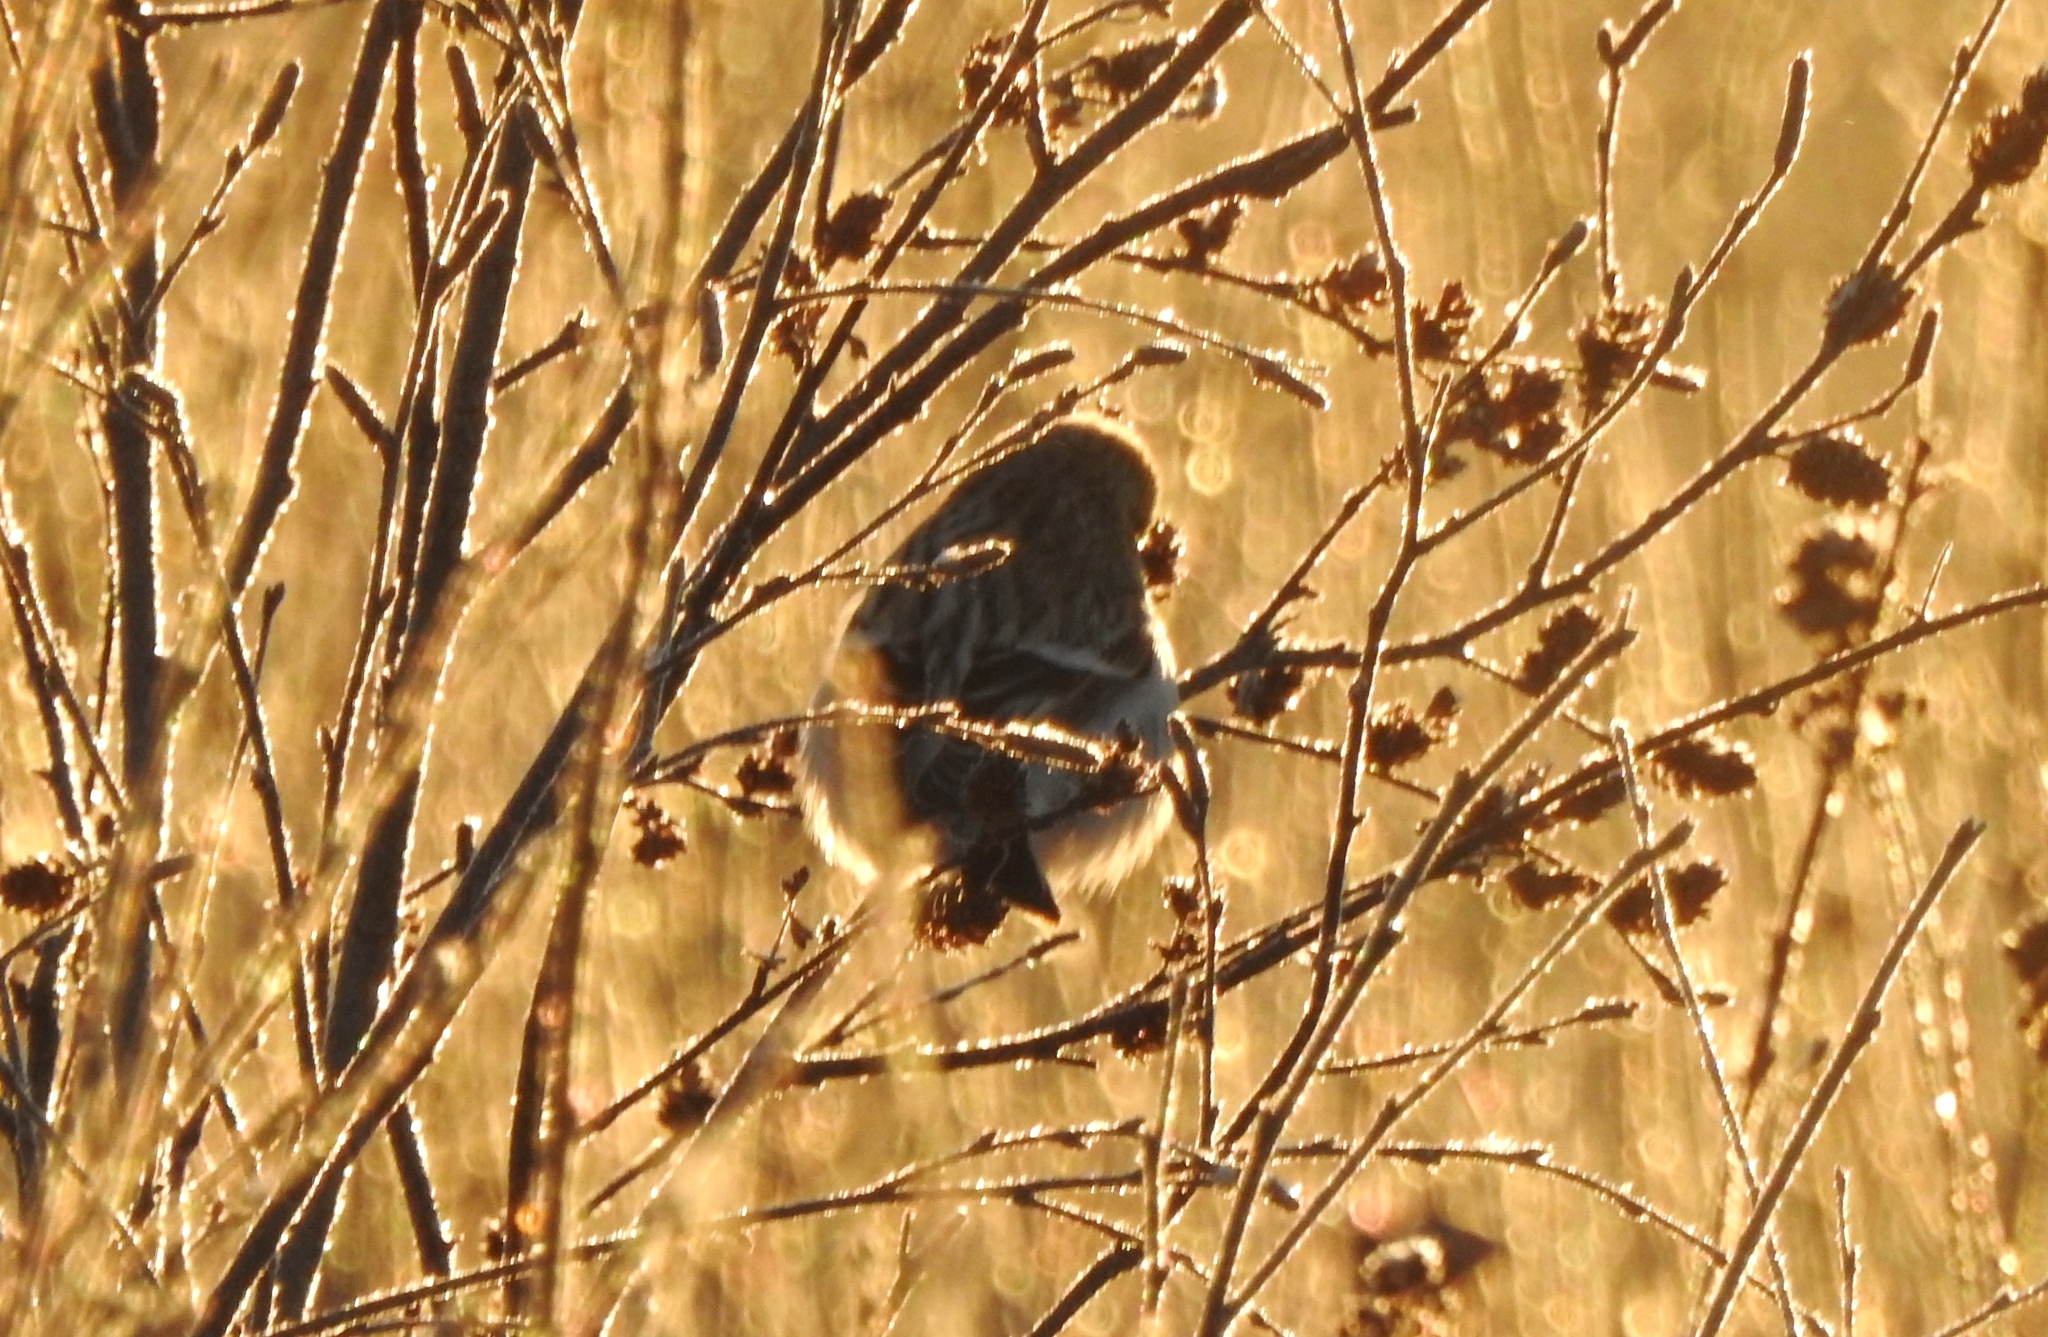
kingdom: Animalia
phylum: Chordata
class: Aves
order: Passeriformes
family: Fringillidae
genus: Acanthis
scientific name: Acanthis flammea
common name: Common redpoll
